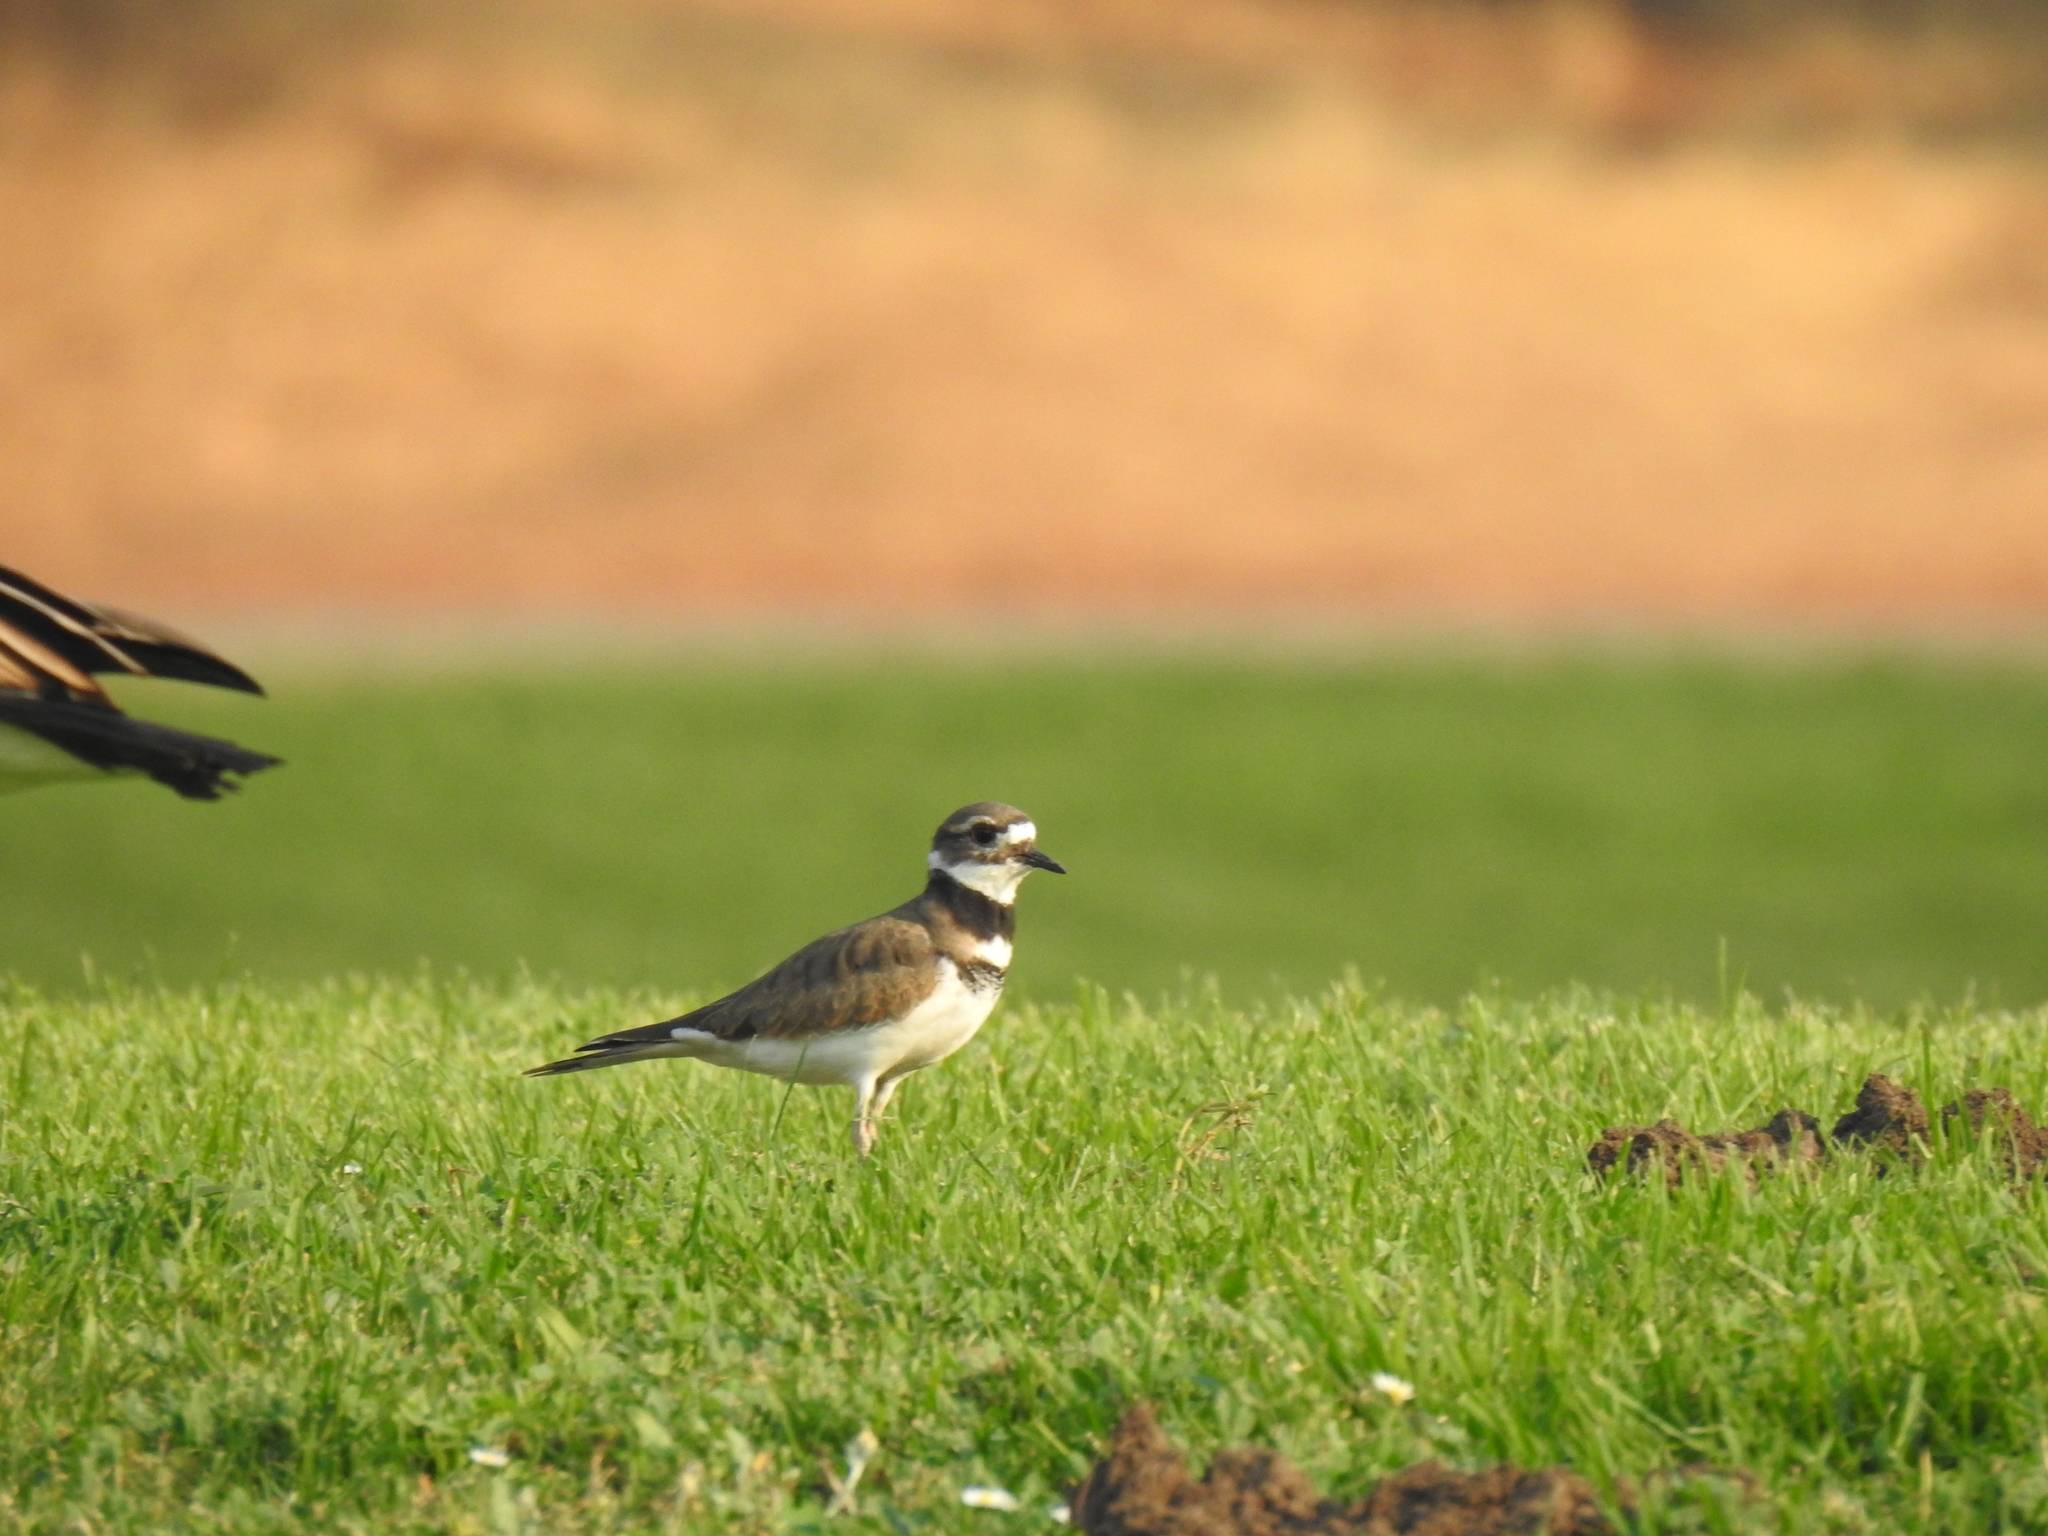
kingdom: Animalia
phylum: Chordata
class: Aves
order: Charadriiformes
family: Charadriidae
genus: Charadrius
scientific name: Charadrius vociferus
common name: Killdeer
